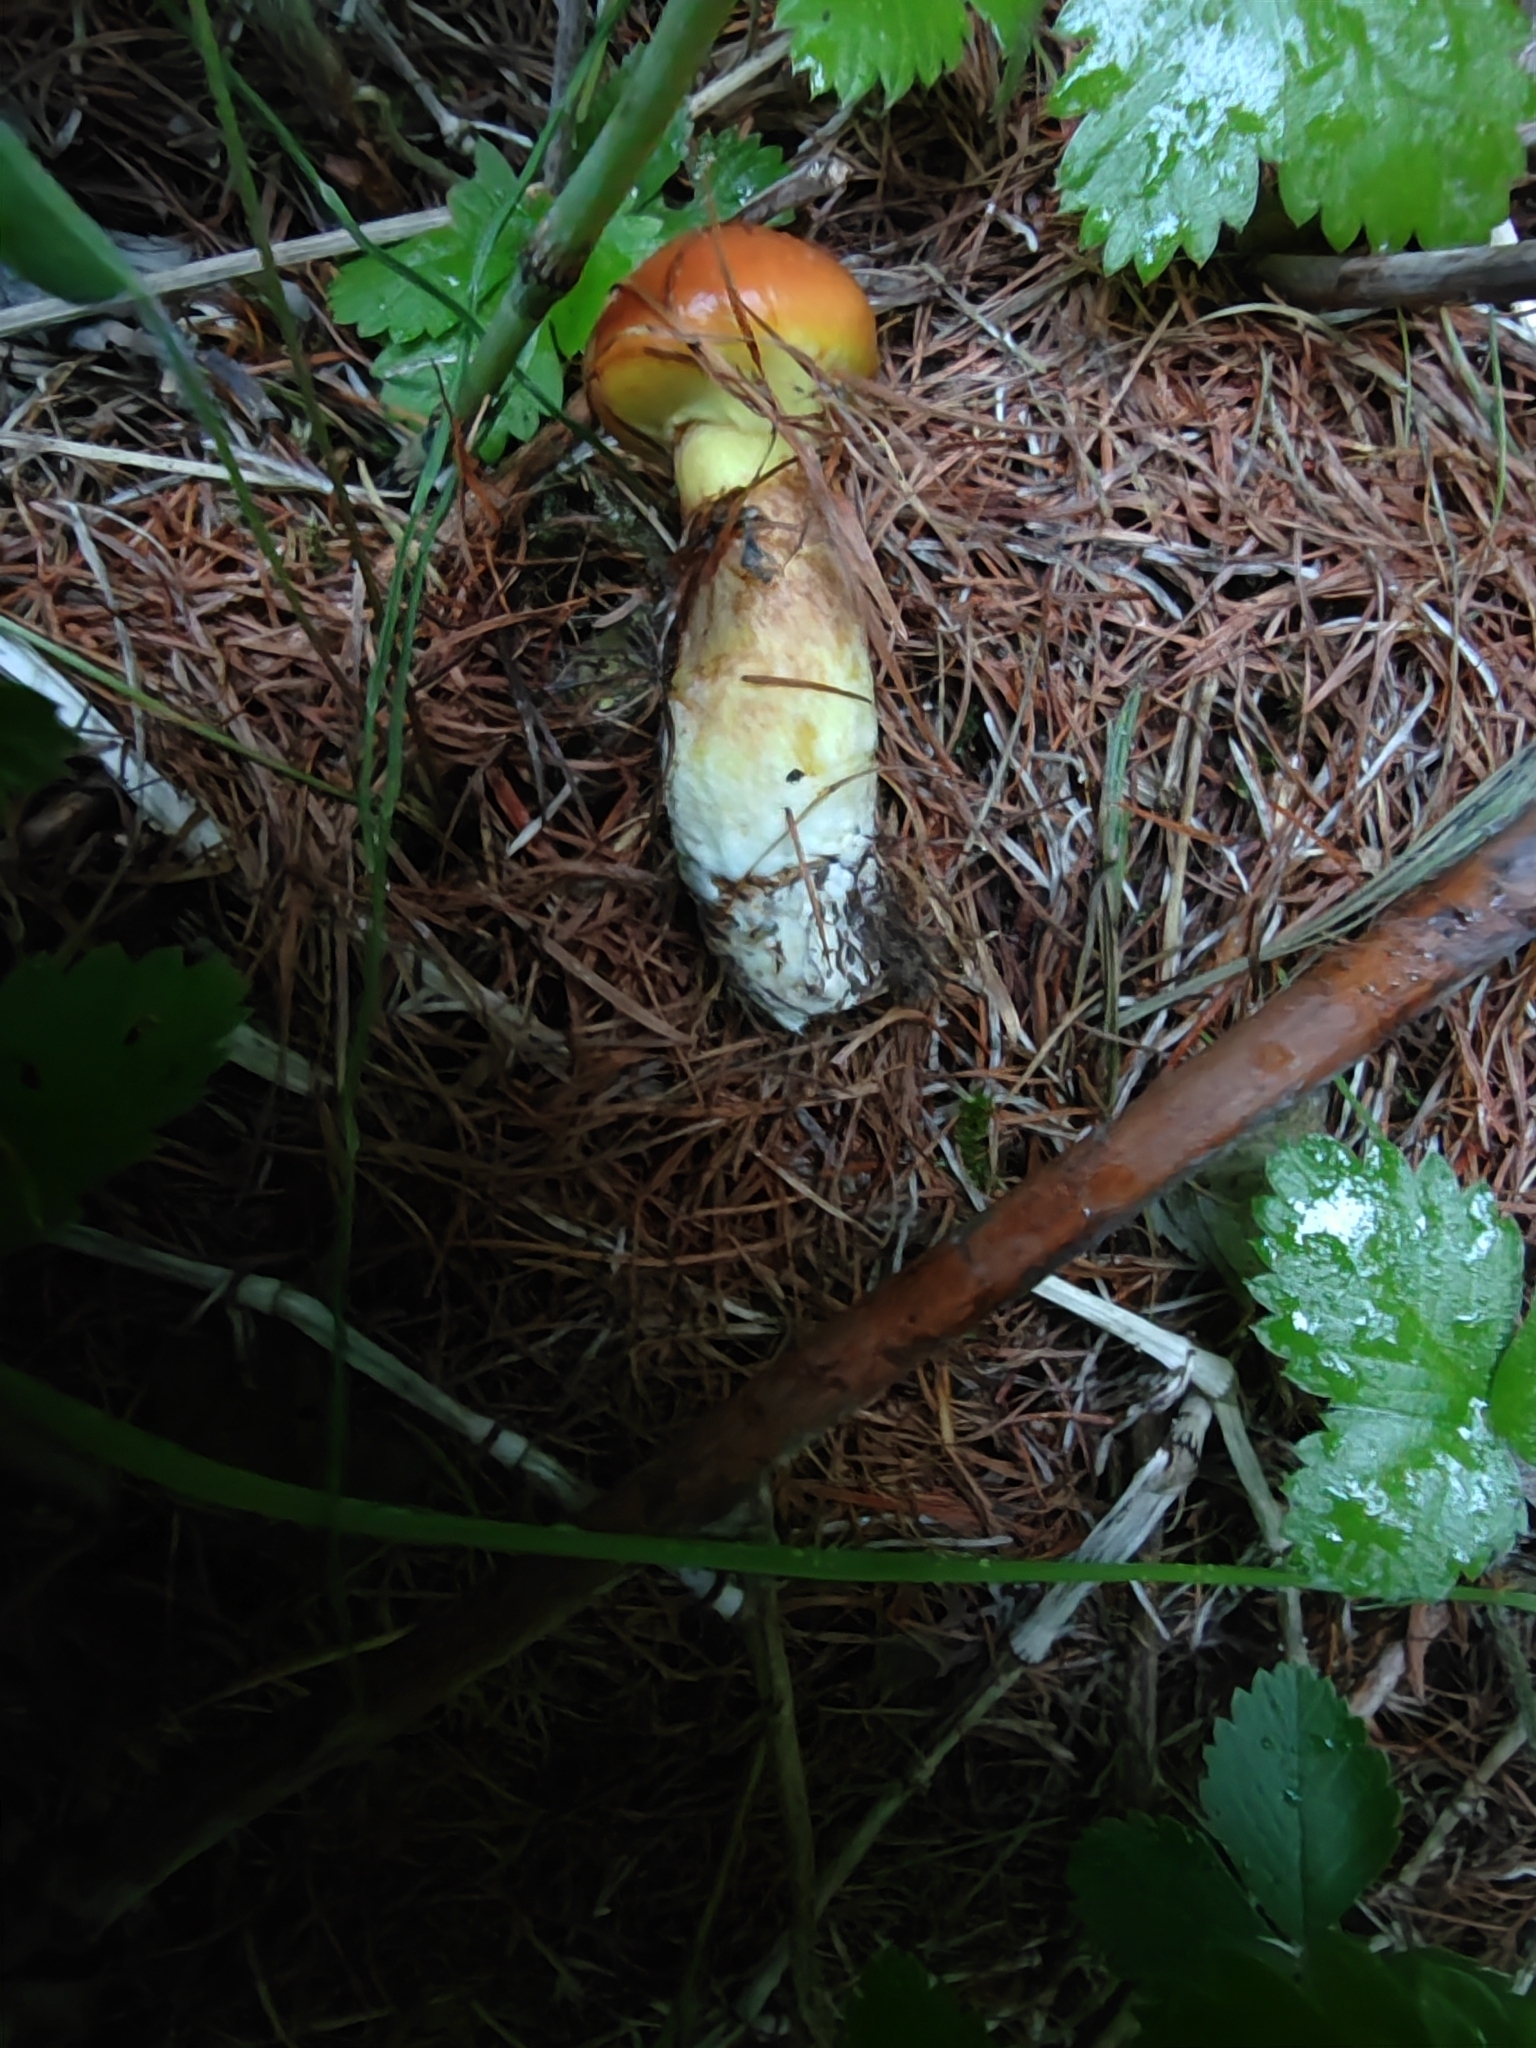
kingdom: Fungi
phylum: Basidiomycota
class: Agaricomycetes
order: Boletales
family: Suillaceae
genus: Suillus
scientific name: Suillus grevillei
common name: Larch bolete
